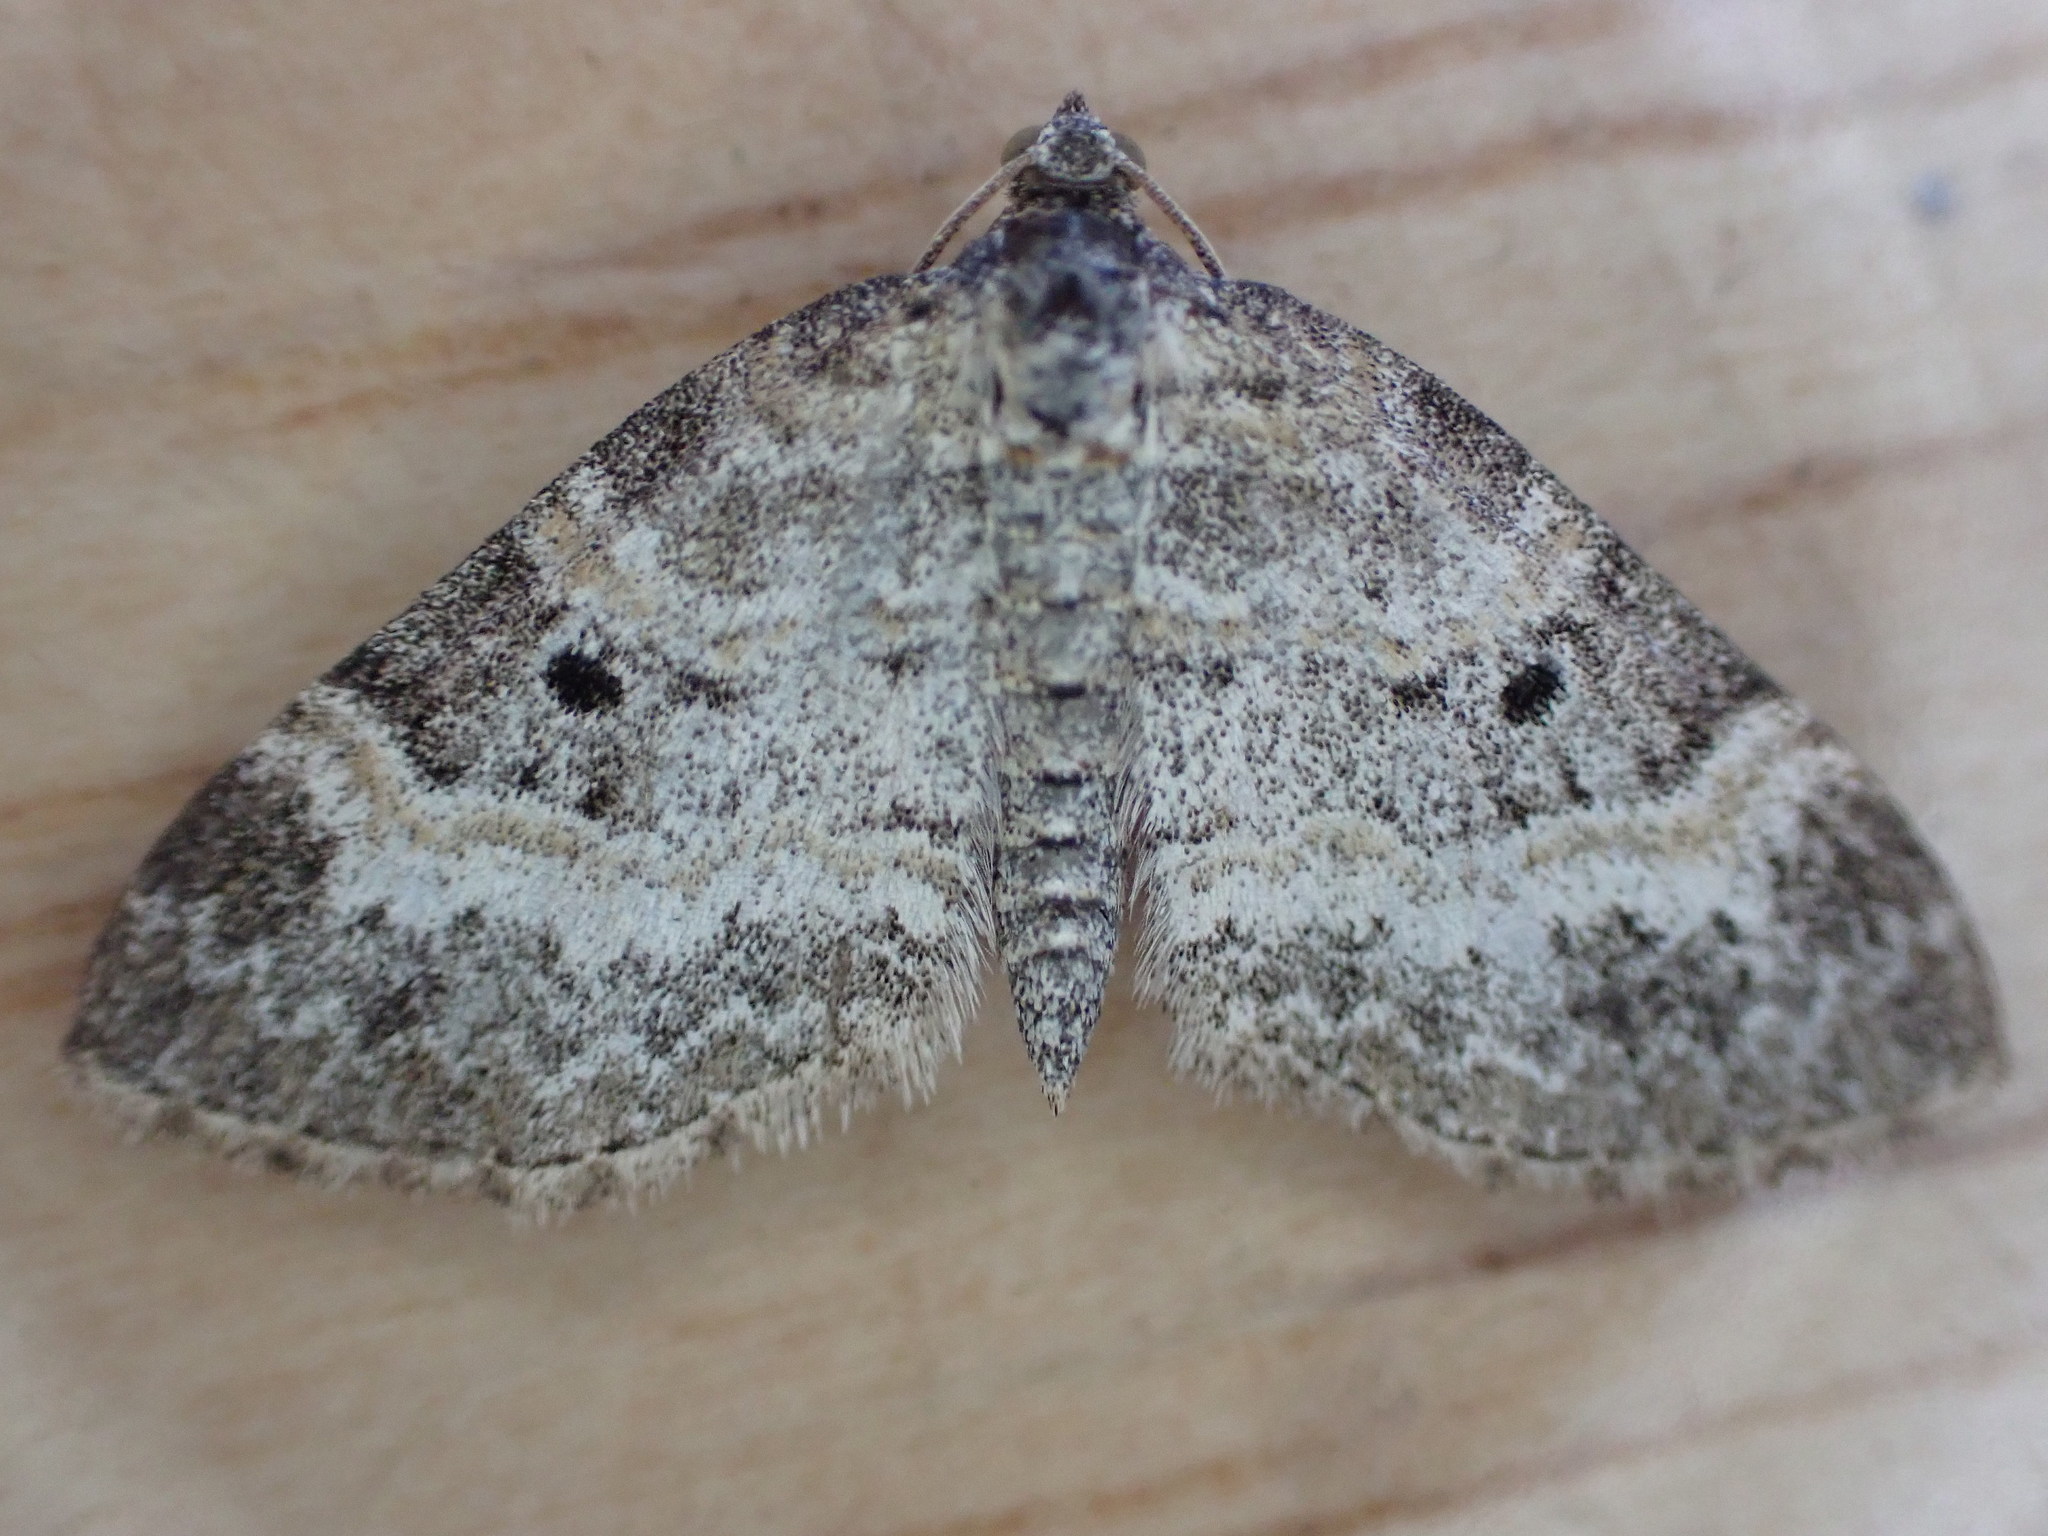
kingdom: Animalia
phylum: Arthropoda
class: Insecta
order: Lepidoptera
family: Geometridae
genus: Pterapherapteryx
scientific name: Pterapherapteryx sexalata
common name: Small seraphim
